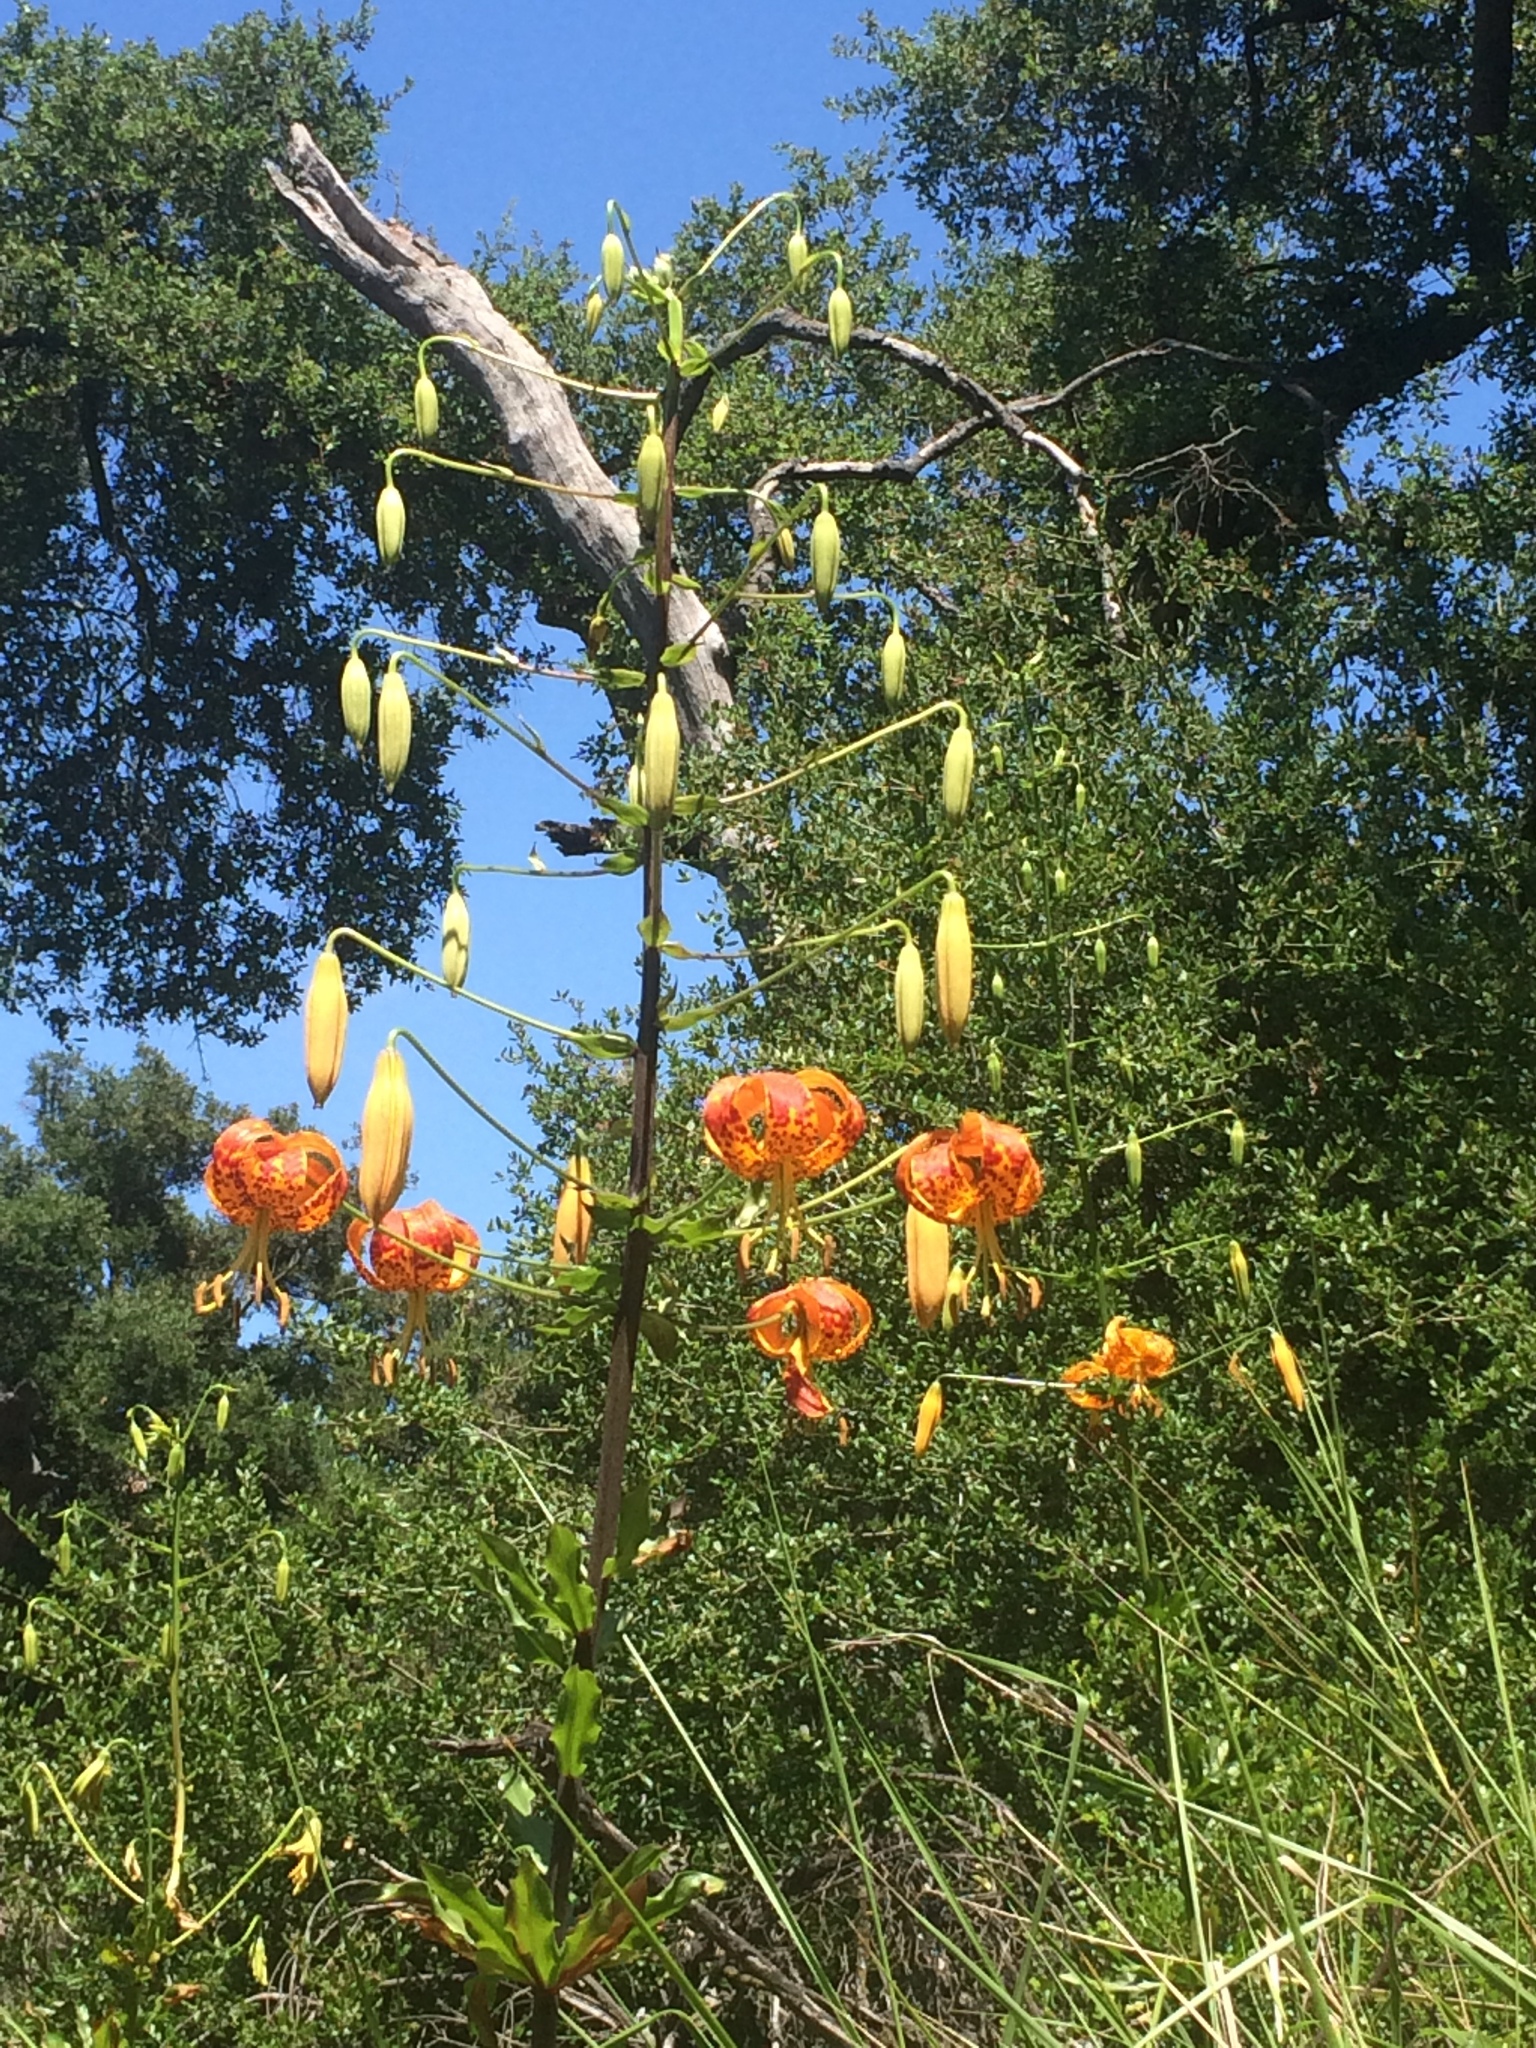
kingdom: Plantae
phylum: Tracheophyta
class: Liliopsida
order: Liliales
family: Liliaceae
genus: Lilium
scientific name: Lilium humboldtii
